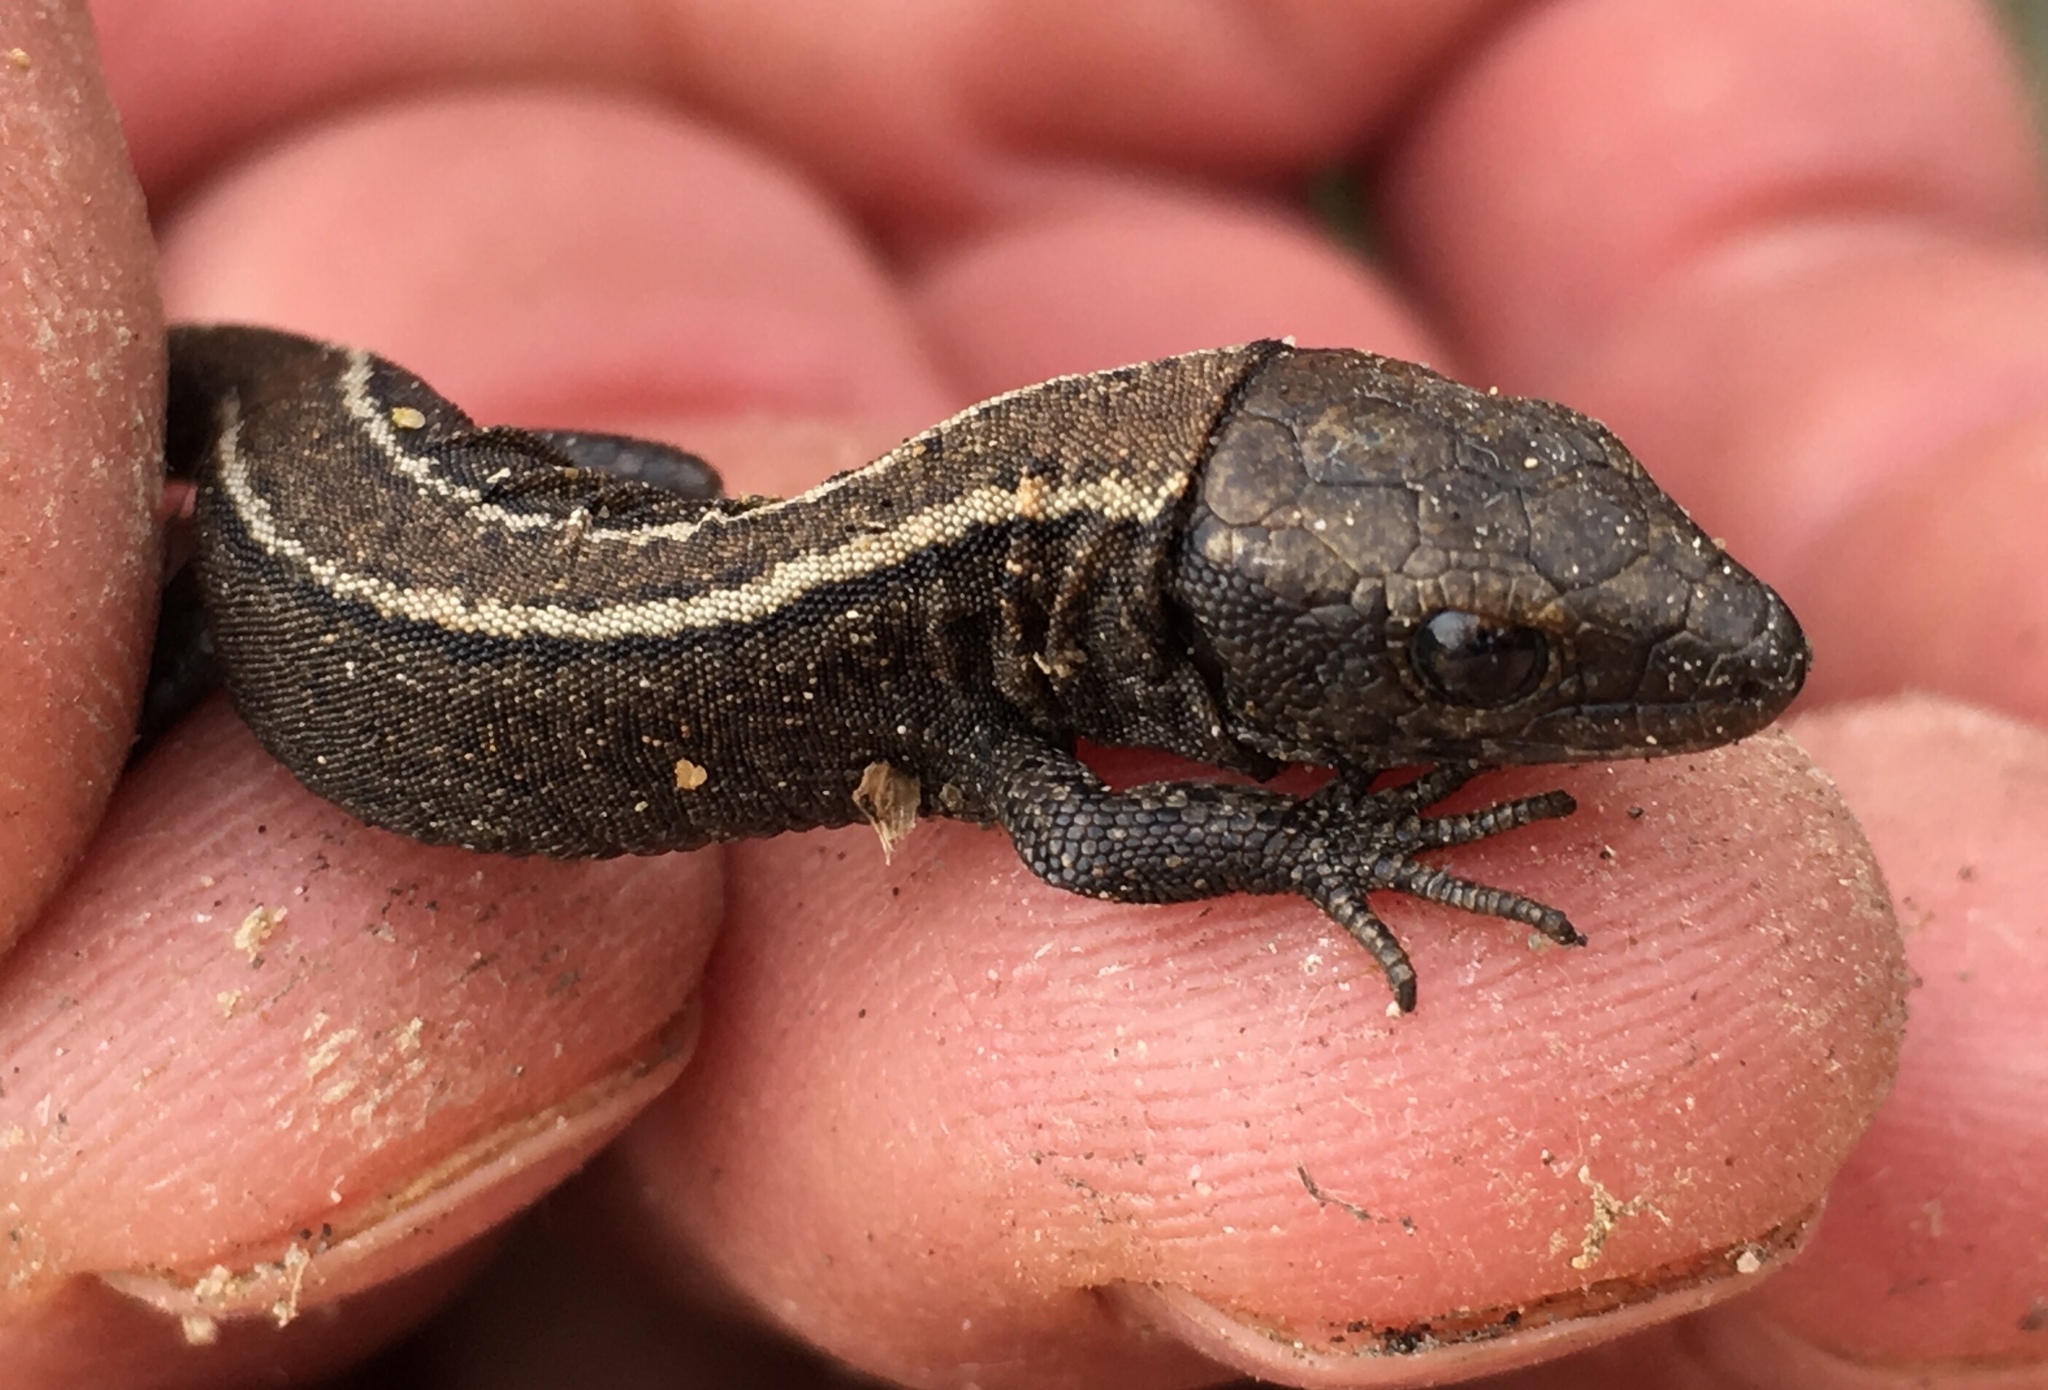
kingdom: Animalia
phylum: Chordata
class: Squamata
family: Xantusiidae
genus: Xantusia
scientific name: Xantusia riversiana
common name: Island night lizard
